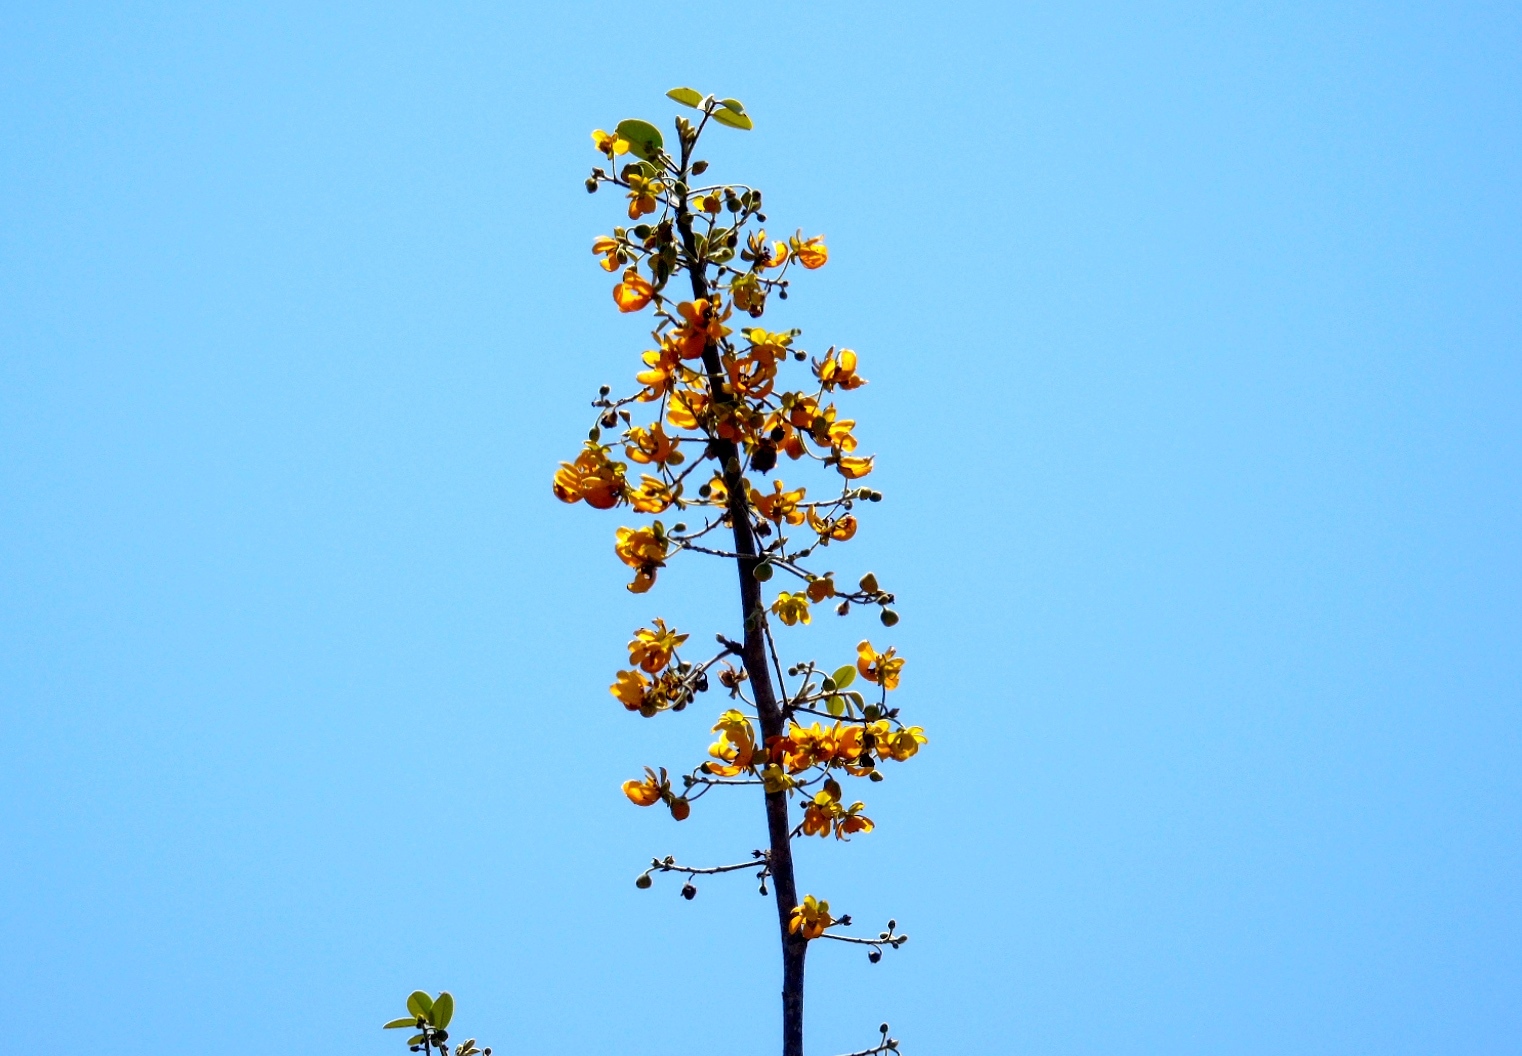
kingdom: Plantae
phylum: Tracheophyta
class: Magnoliopsida
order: Fabales
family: Fabaceae
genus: Senna
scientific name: Senna atomaria
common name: Flor de san jose
